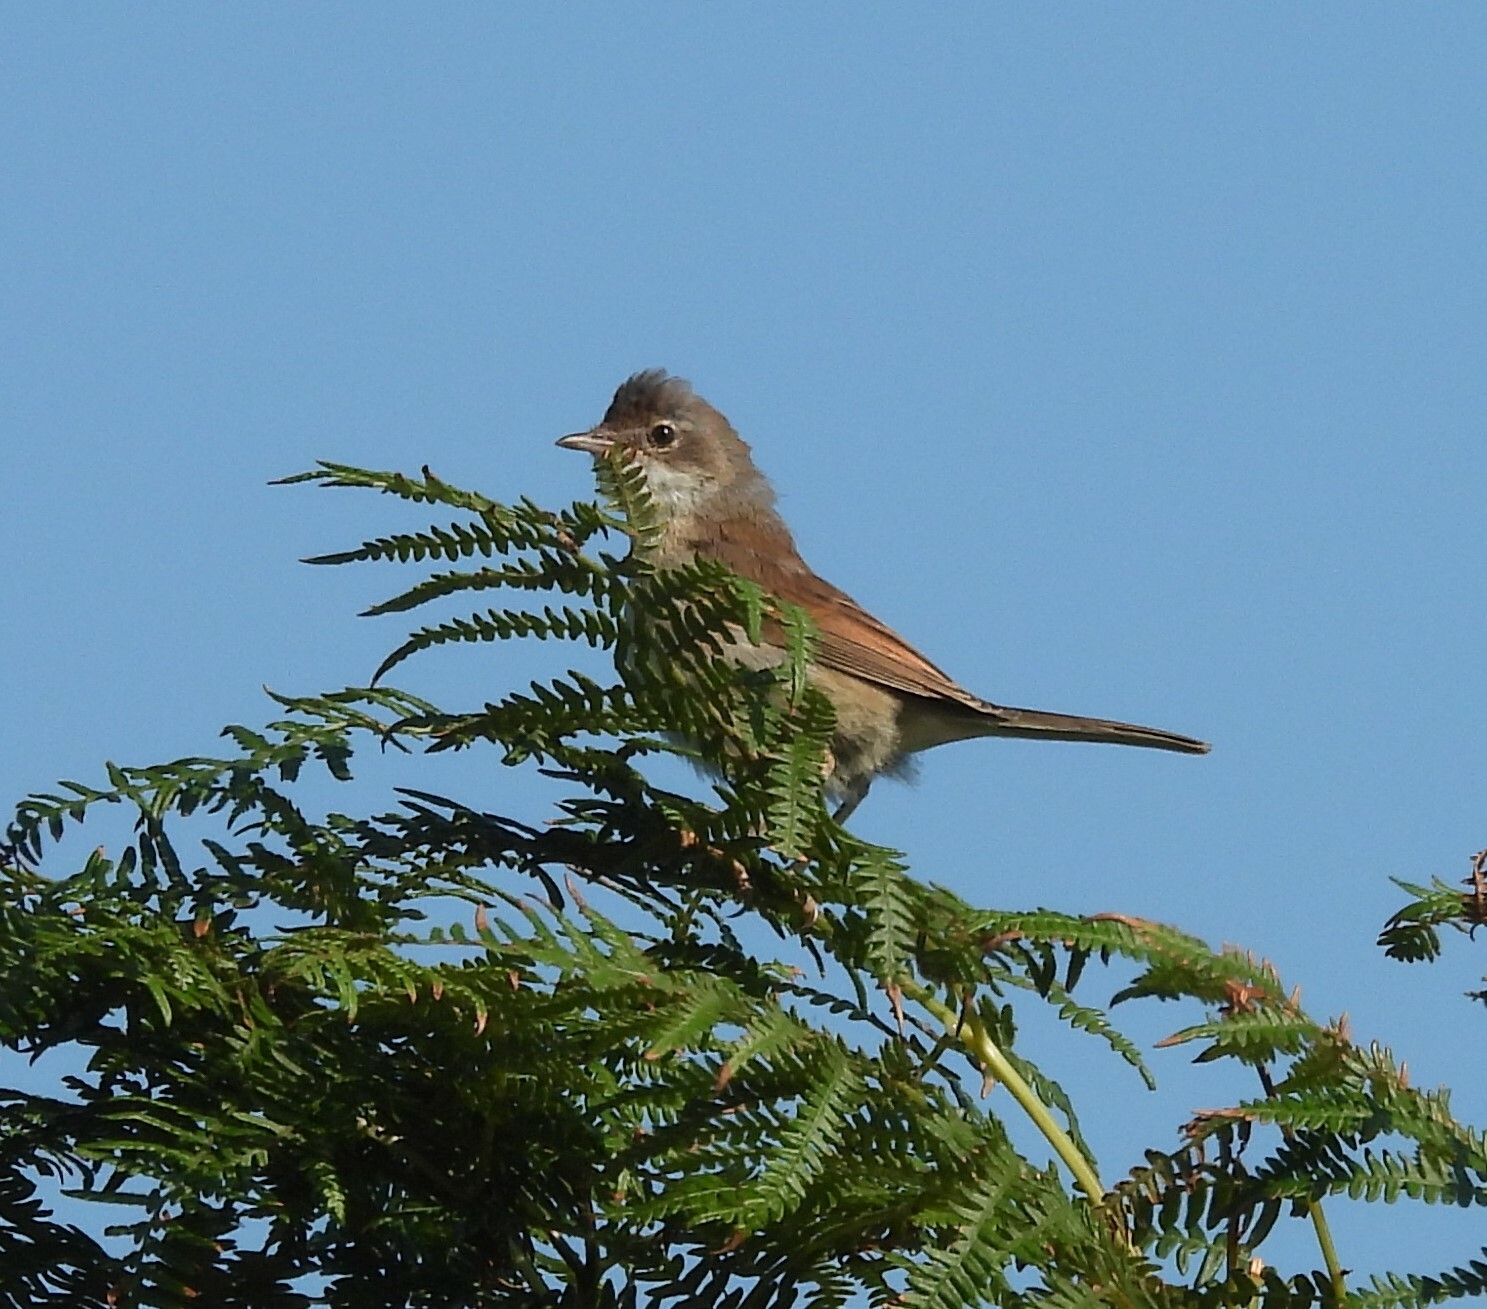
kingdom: Animalia
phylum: Chordata
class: Aves
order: Passeriformes
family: Sylviidae
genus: Sylvia
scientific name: Sylvia communis
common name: Common whitethroat
